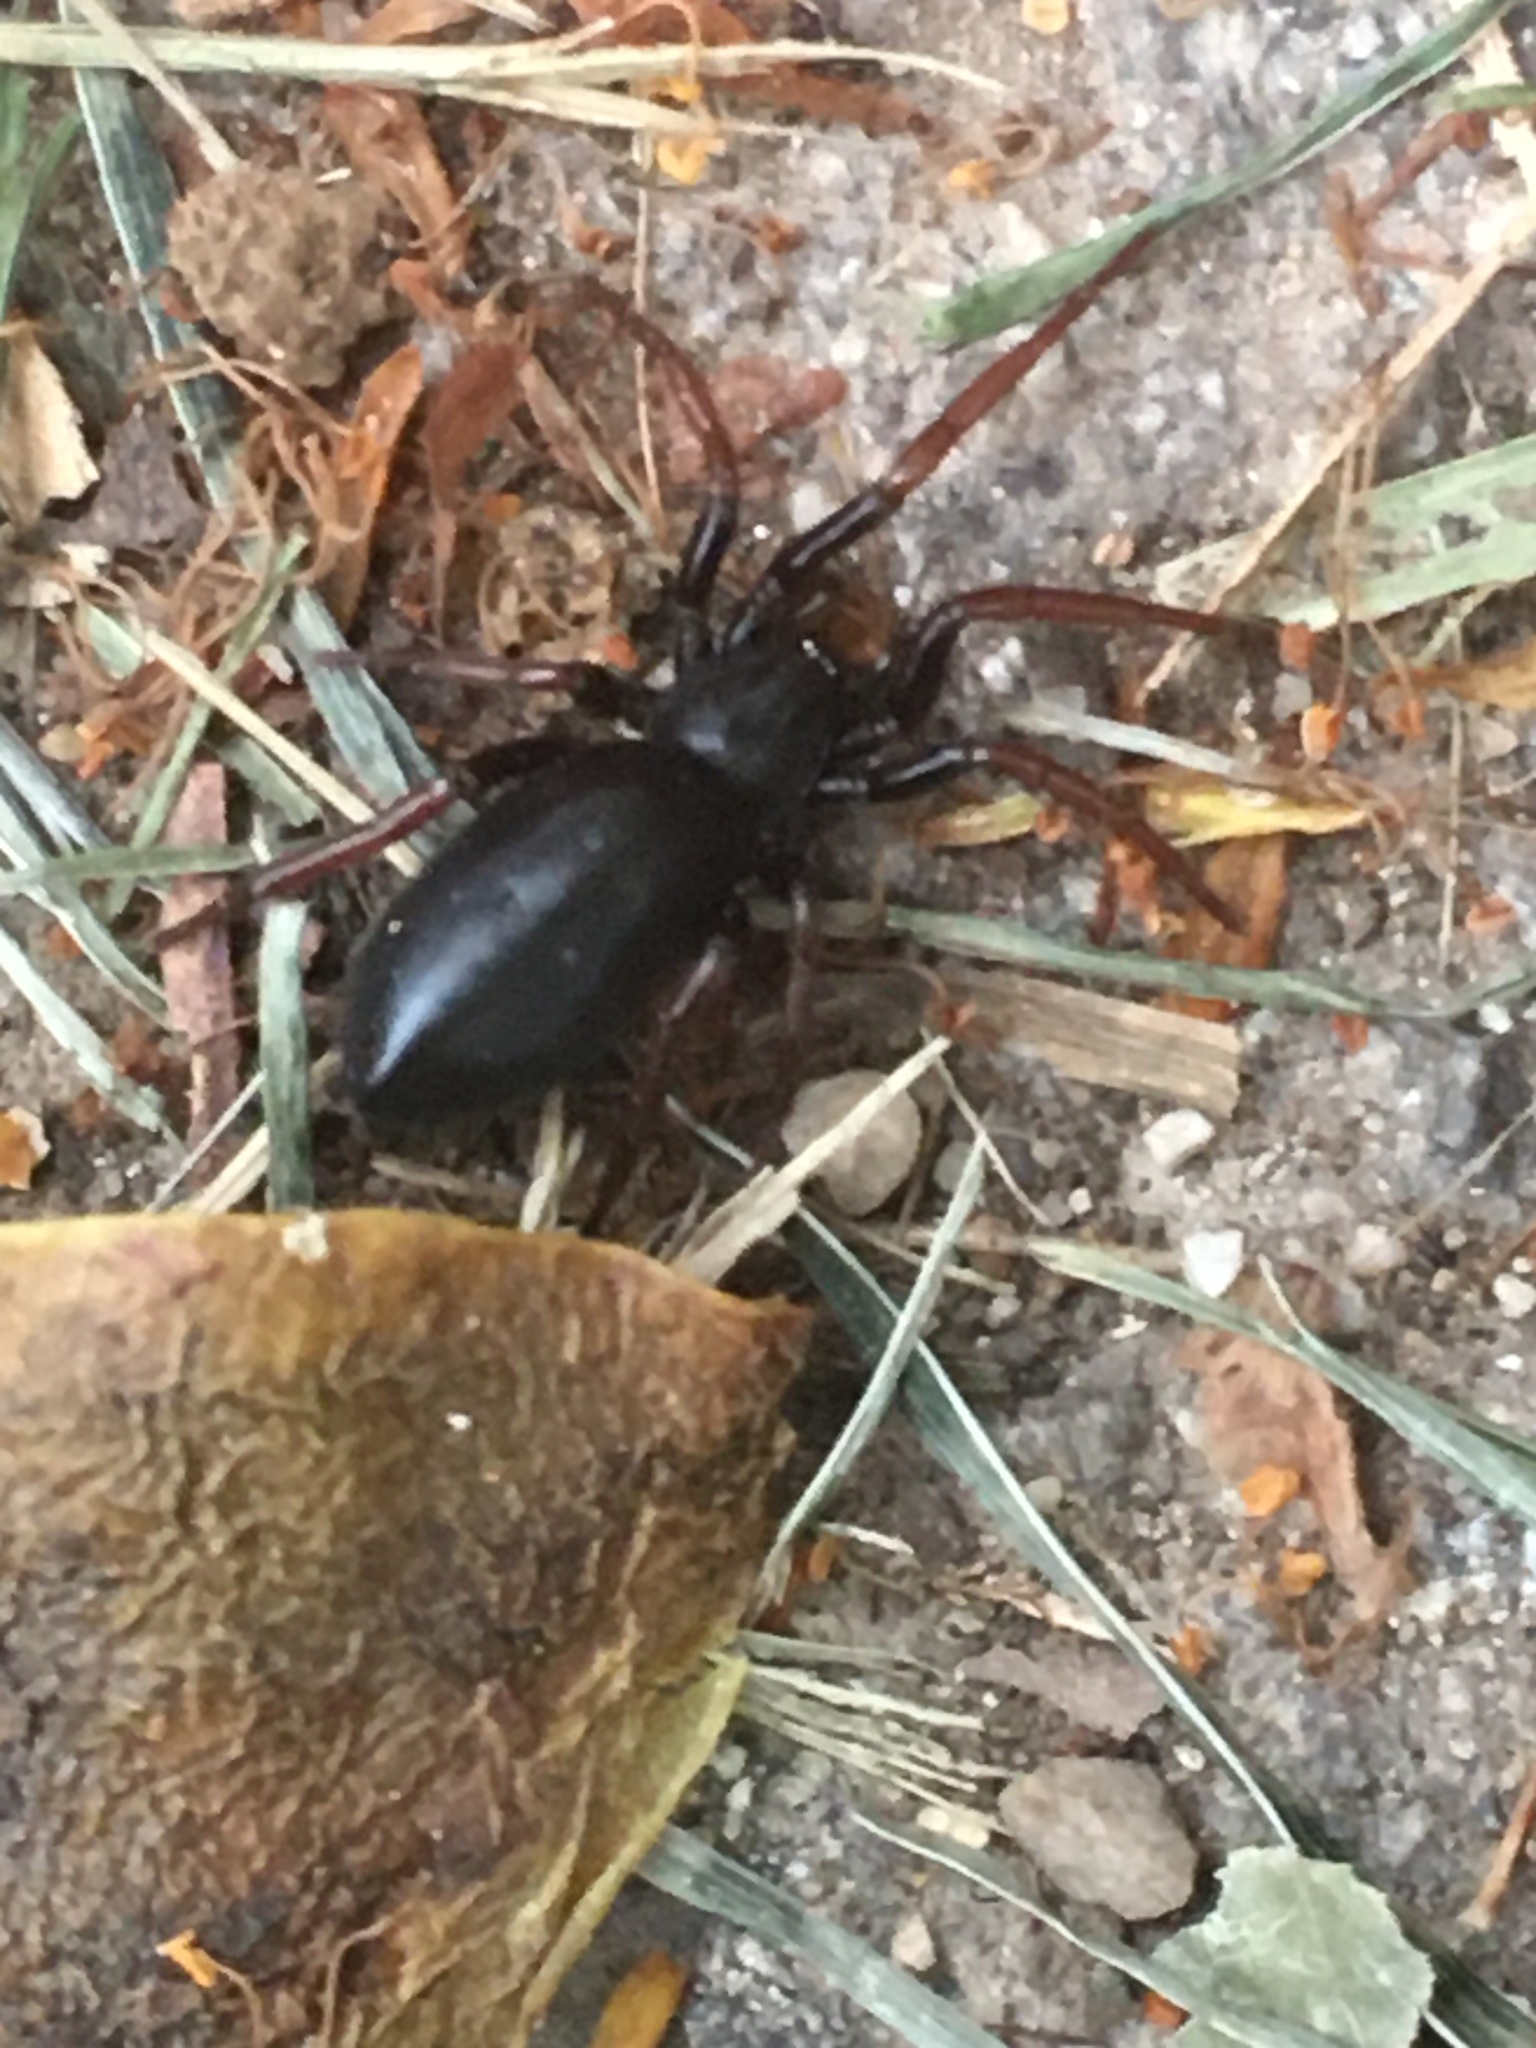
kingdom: Animalia
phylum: Arthropoda
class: Arachnida
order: Araneae
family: Gnaphosidae
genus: Trachyzelotes
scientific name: Trachyzelotes pedestris
